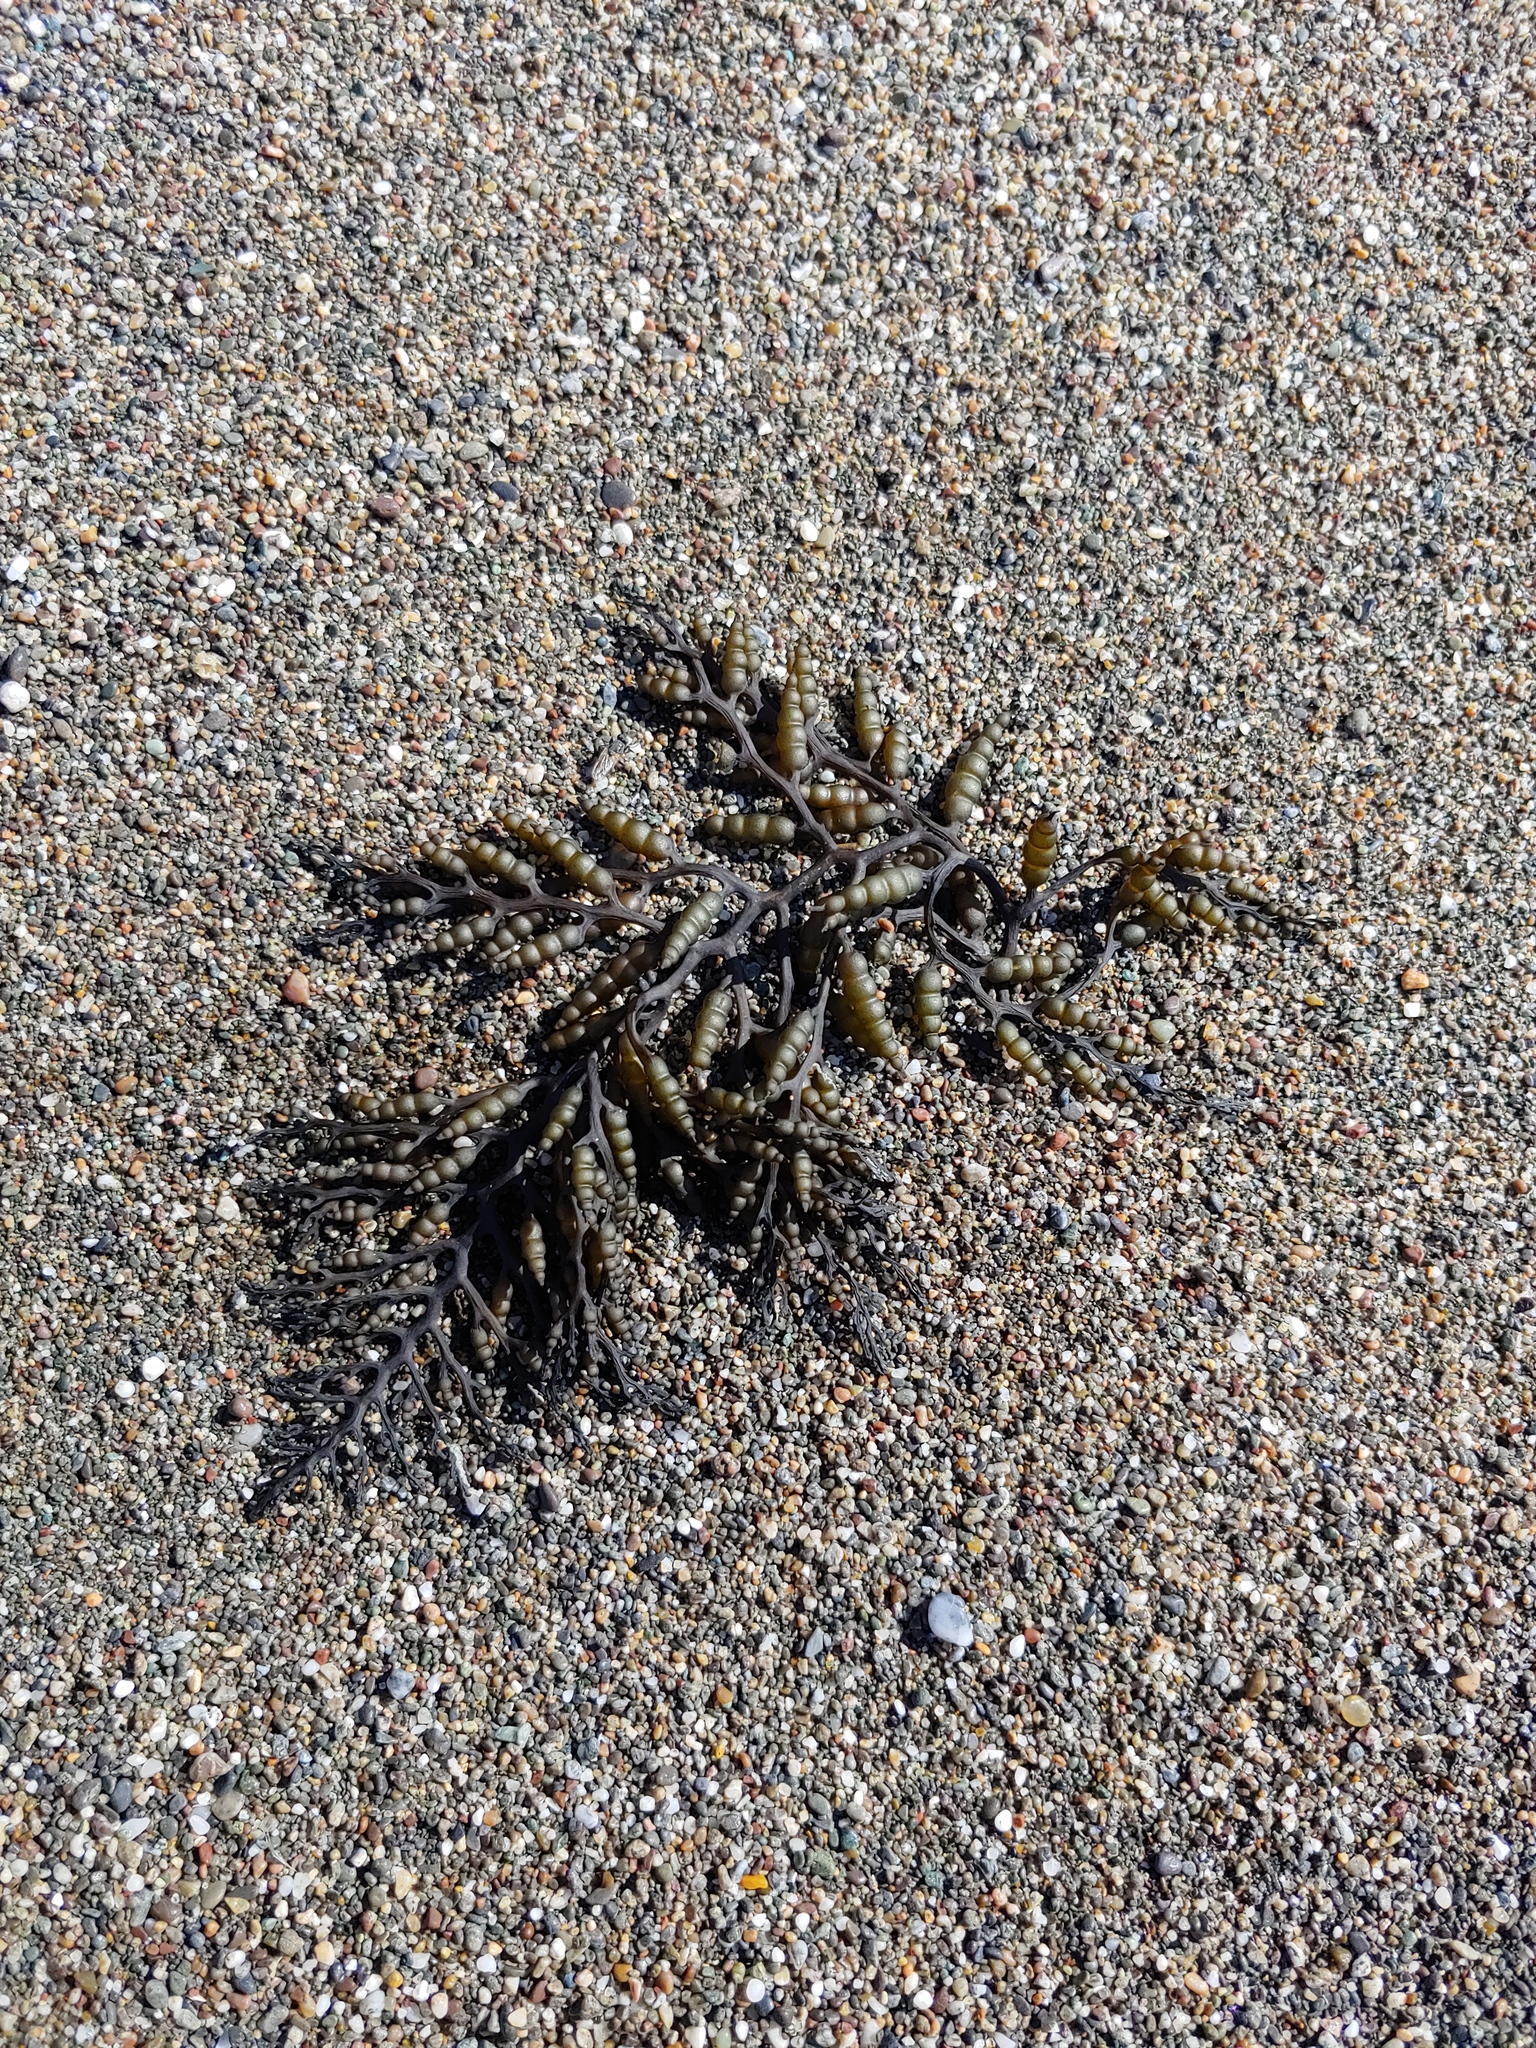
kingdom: Chromista
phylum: Ochrophyta
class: Phaeophyceae
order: Fucales
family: Sargassaceae
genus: Stephanocystis
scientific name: Stephanocystis
